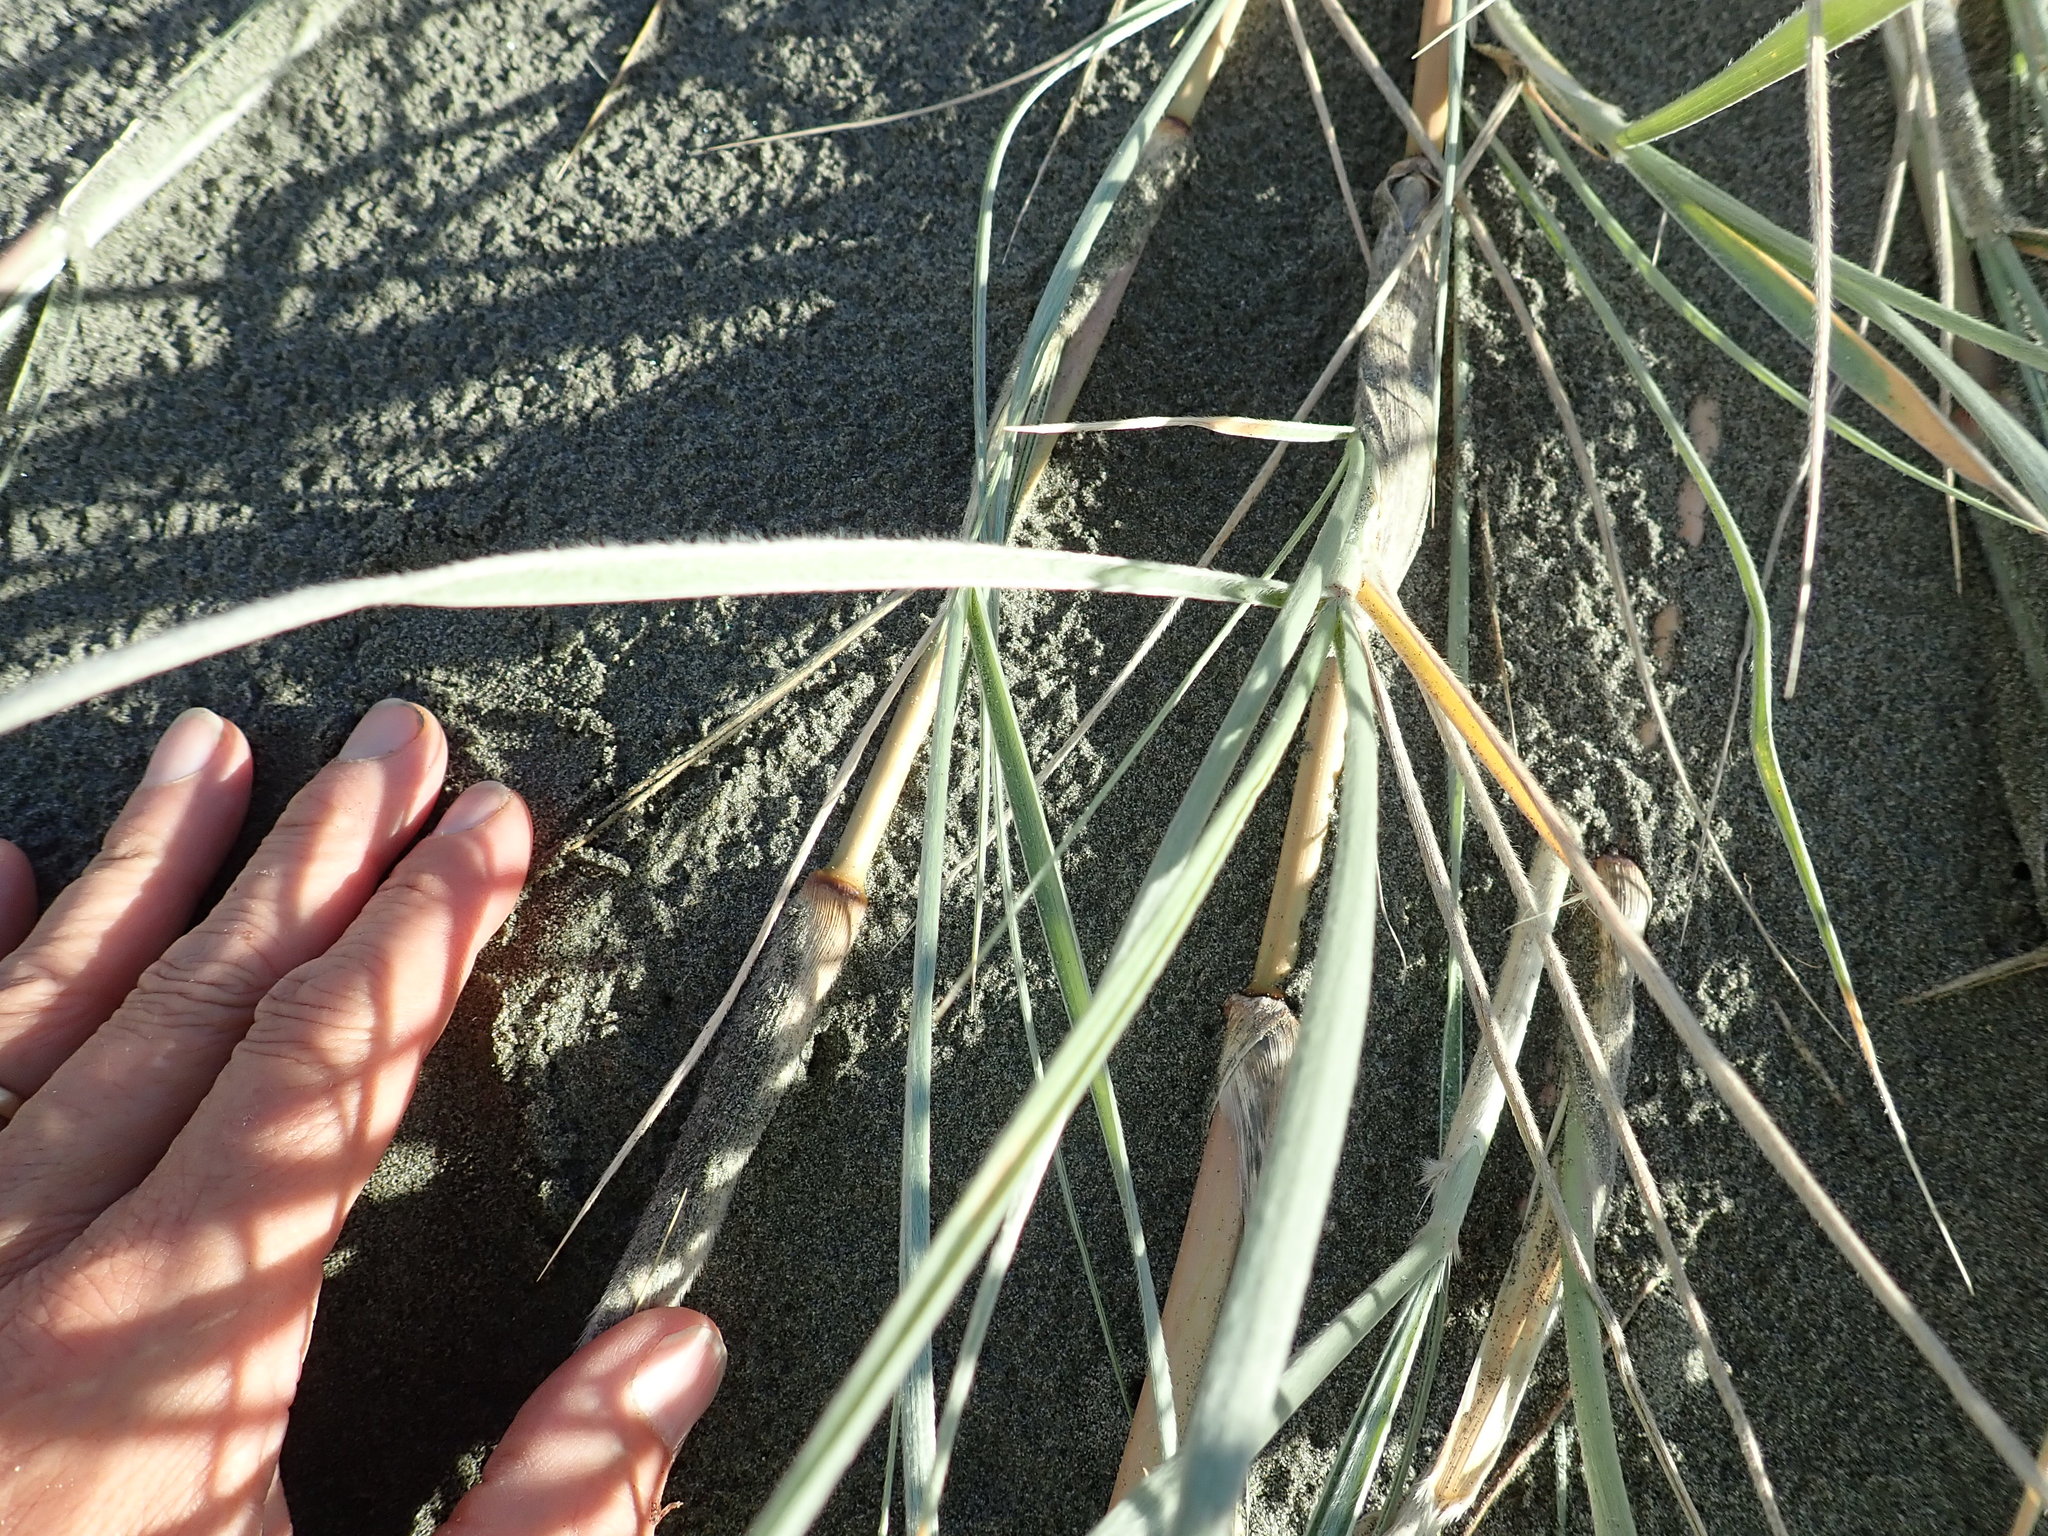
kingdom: Plantae
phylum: Tracheophyta
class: Liliopsida
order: Poales
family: Poaceae
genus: Spinifex
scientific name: Spinifex sericeus
